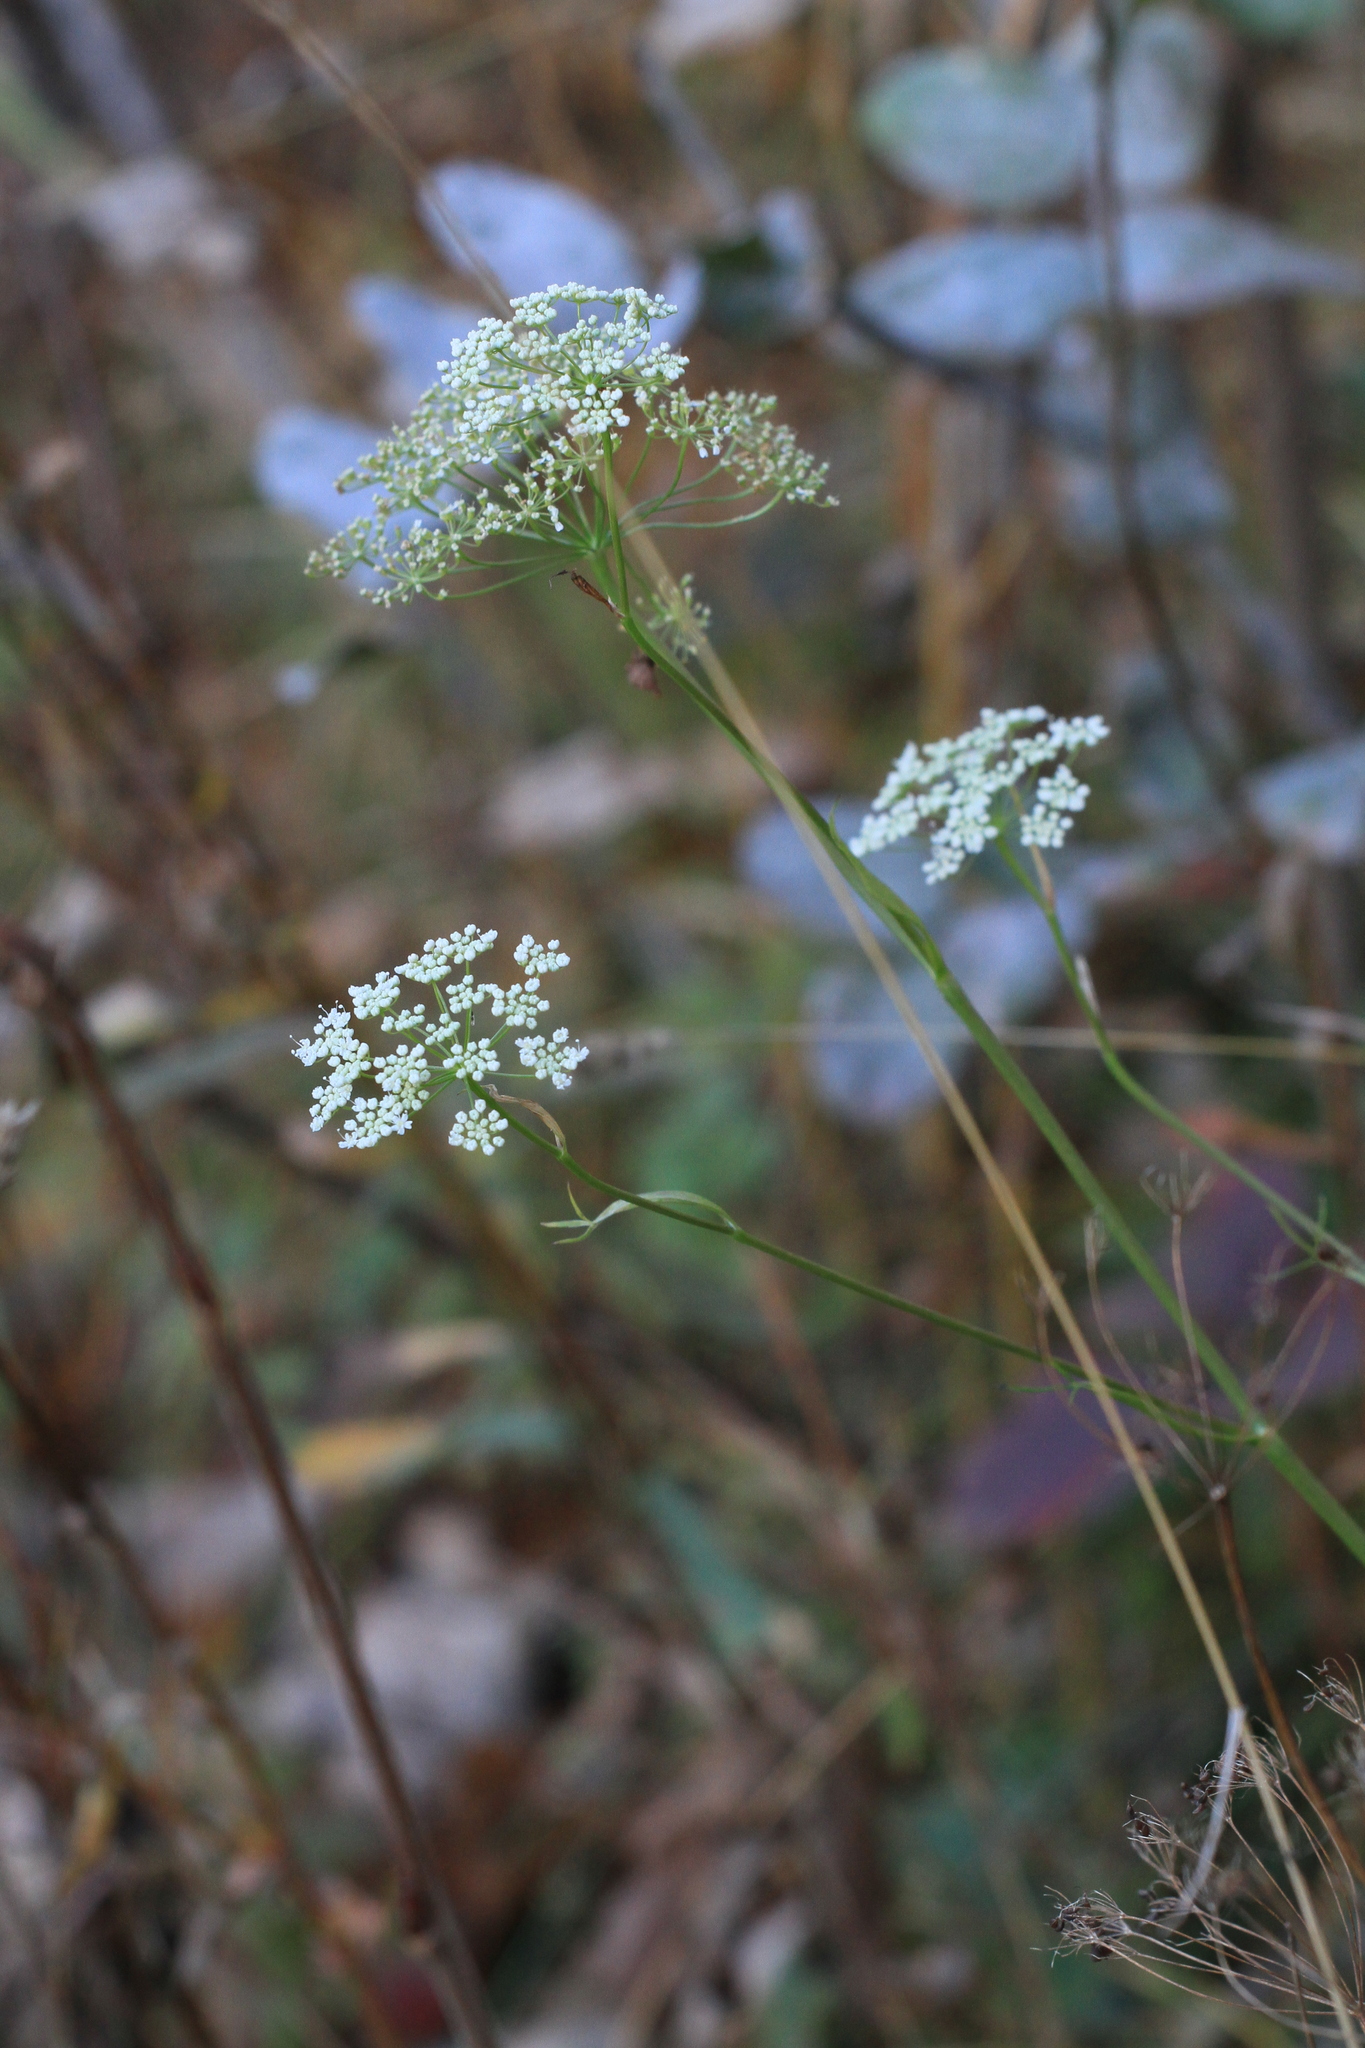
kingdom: Plantae
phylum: Tracheophyta
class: Magnoliopsida
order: Apiales
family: Apiaceae
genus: Pimpinella
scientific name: Pimpinella saxifraga
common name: Burnet-saxifrage
